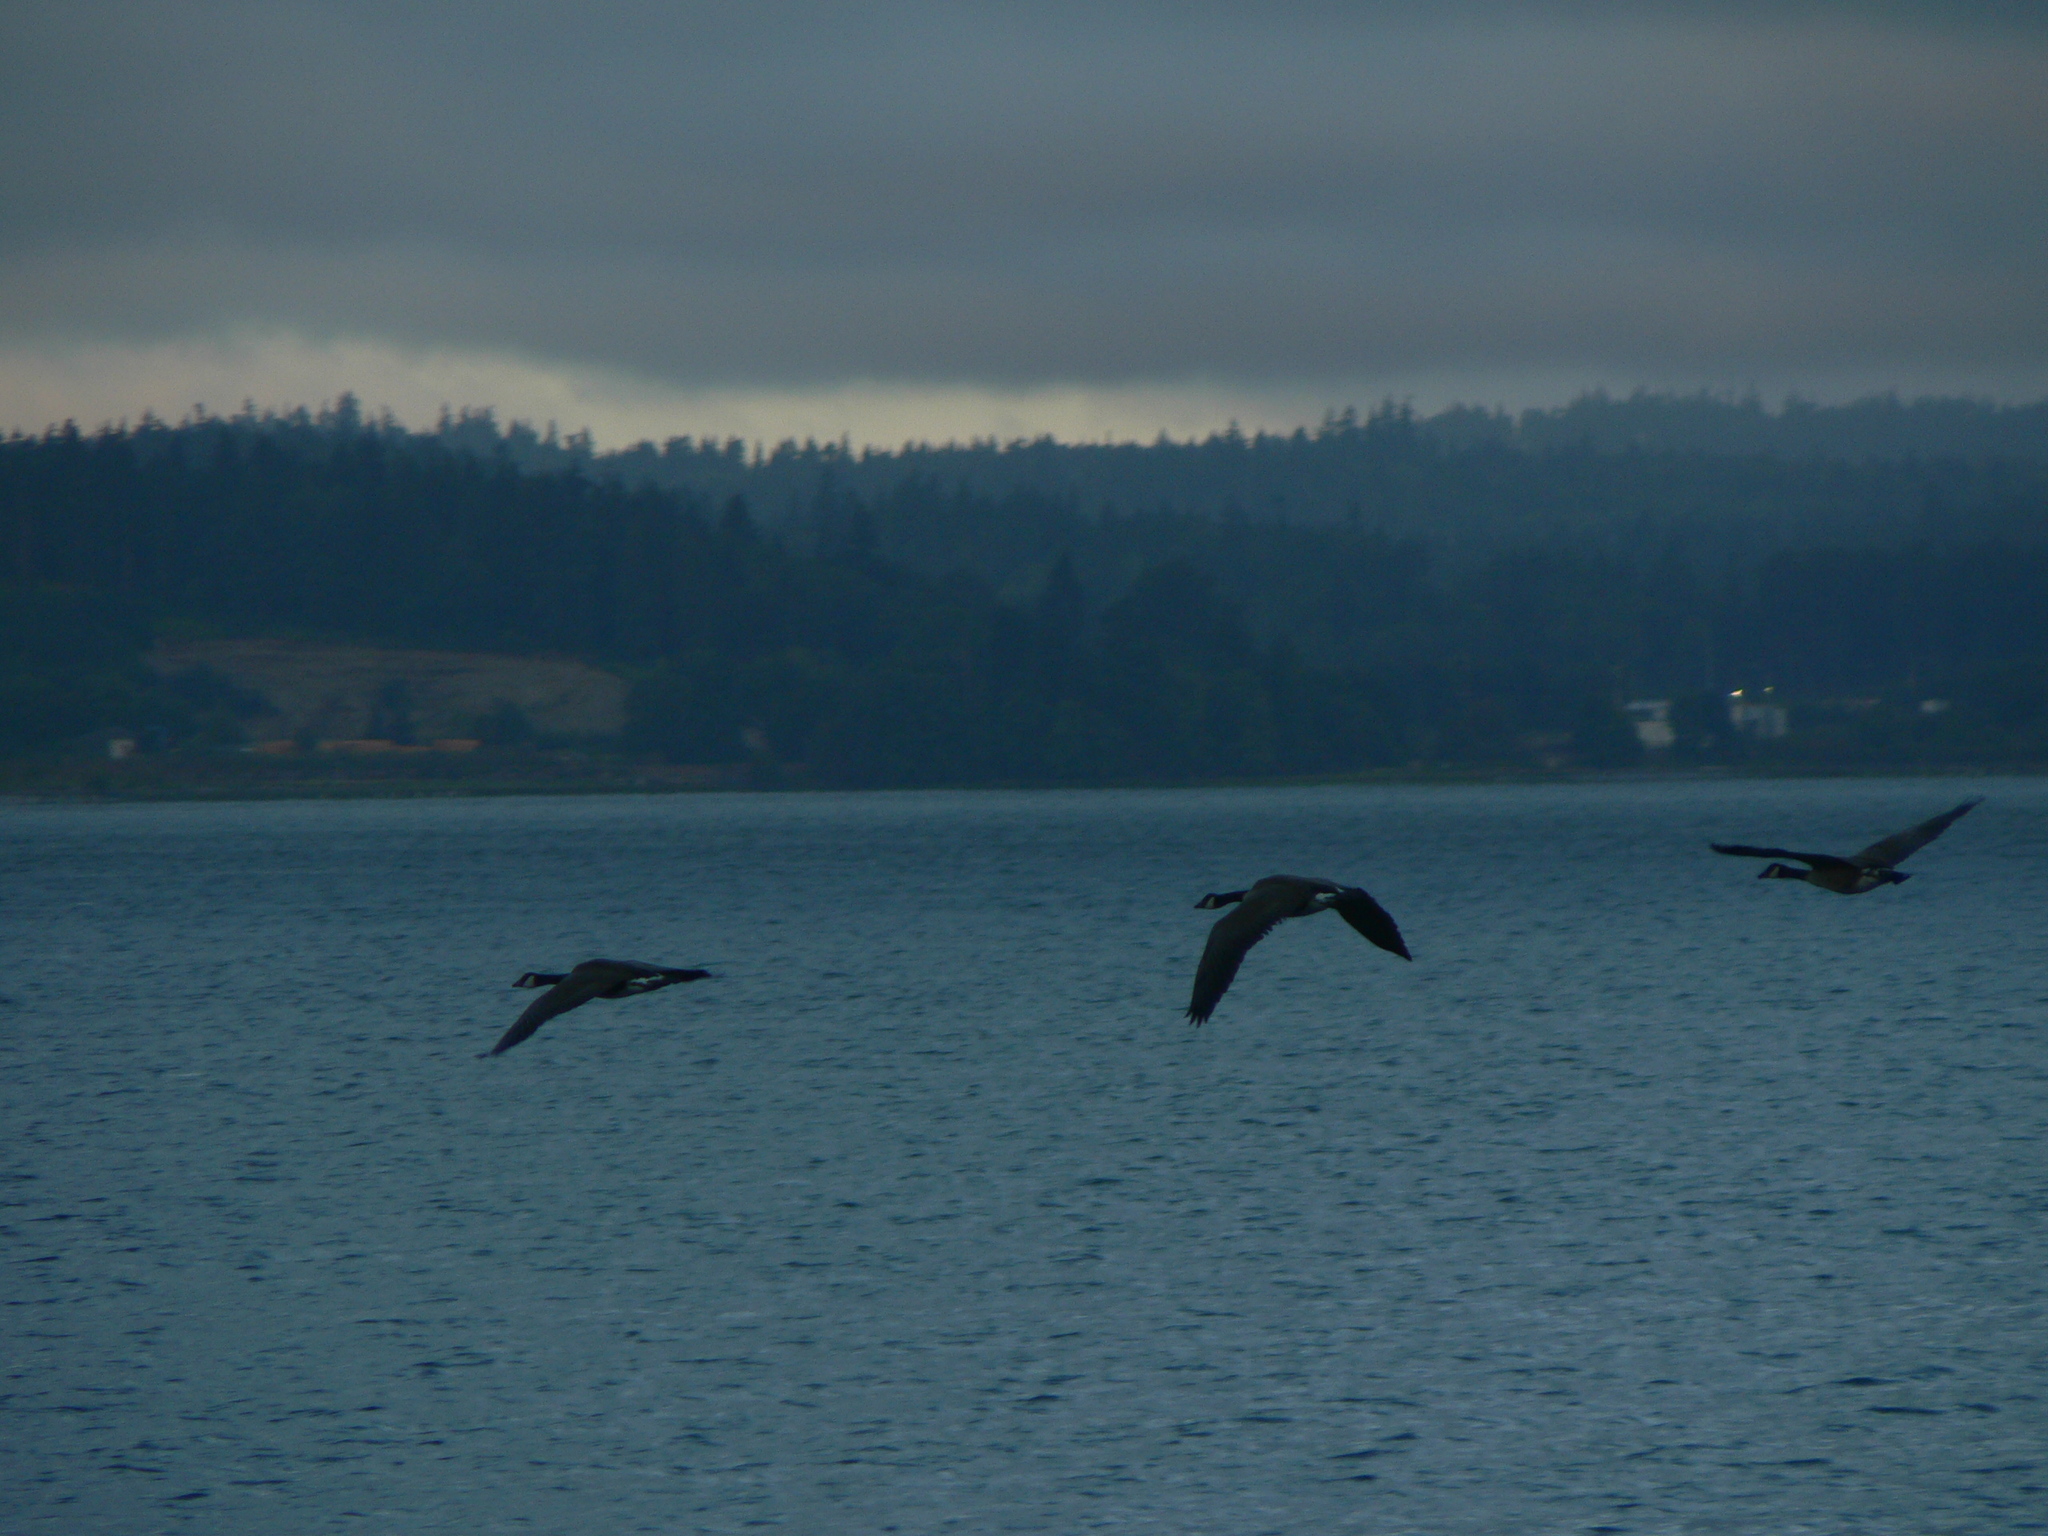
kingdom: Animalia
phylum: Chordata
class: Aves
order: Anseriformes
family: Anatidae
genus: Branta
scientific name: Branta canadensis
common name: Canada goose
